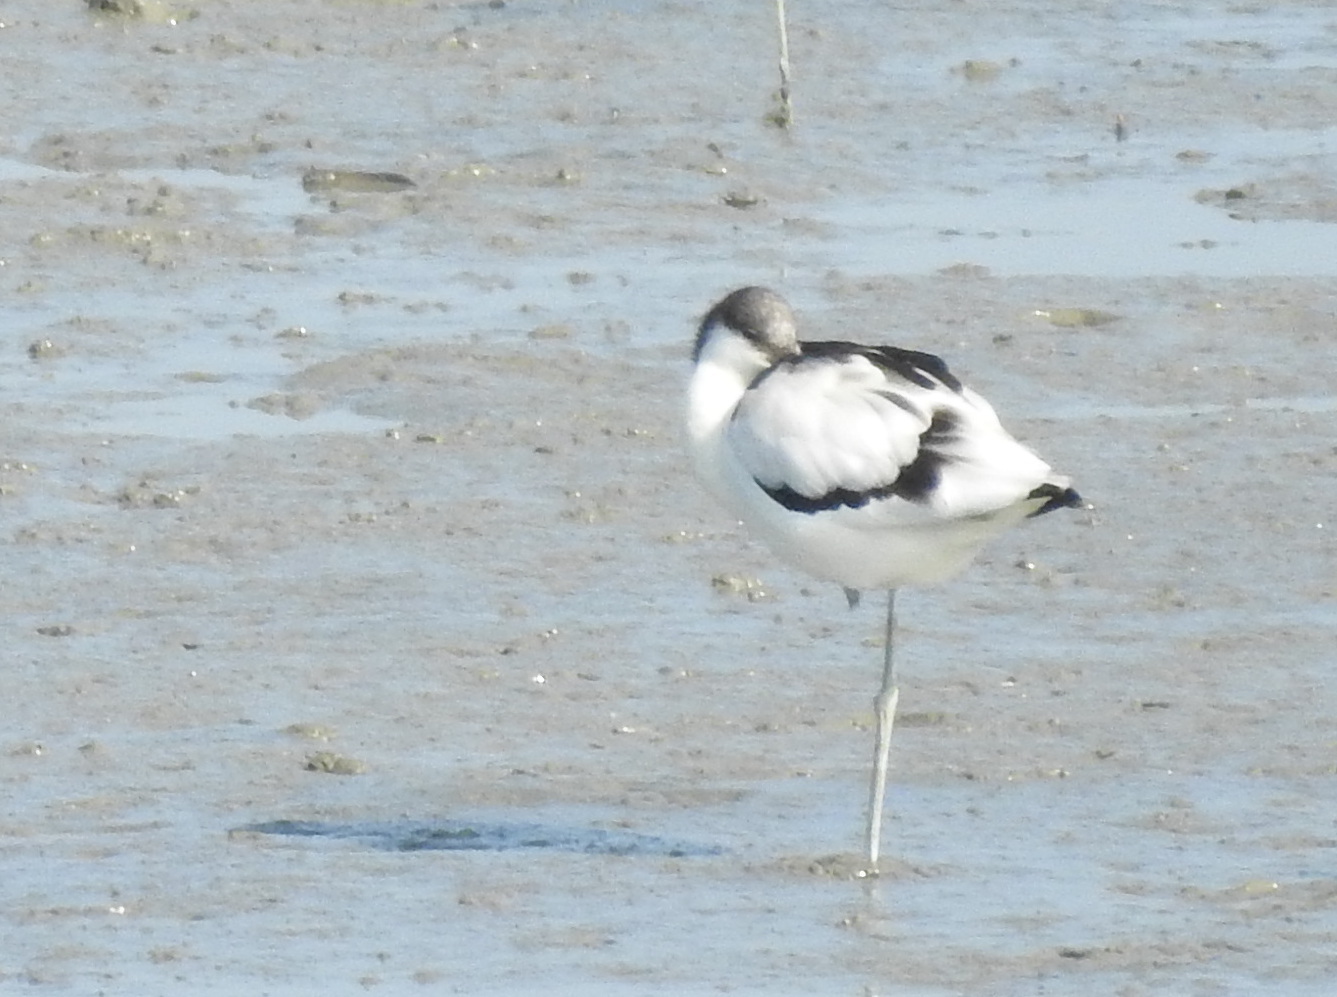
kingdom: Animalia
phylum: Chordata
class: Aves
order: Charadriiformes
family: Recurvirostridae
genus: Recurvirostra
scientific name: Recurvirostra avosetta
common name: Pied avocet
